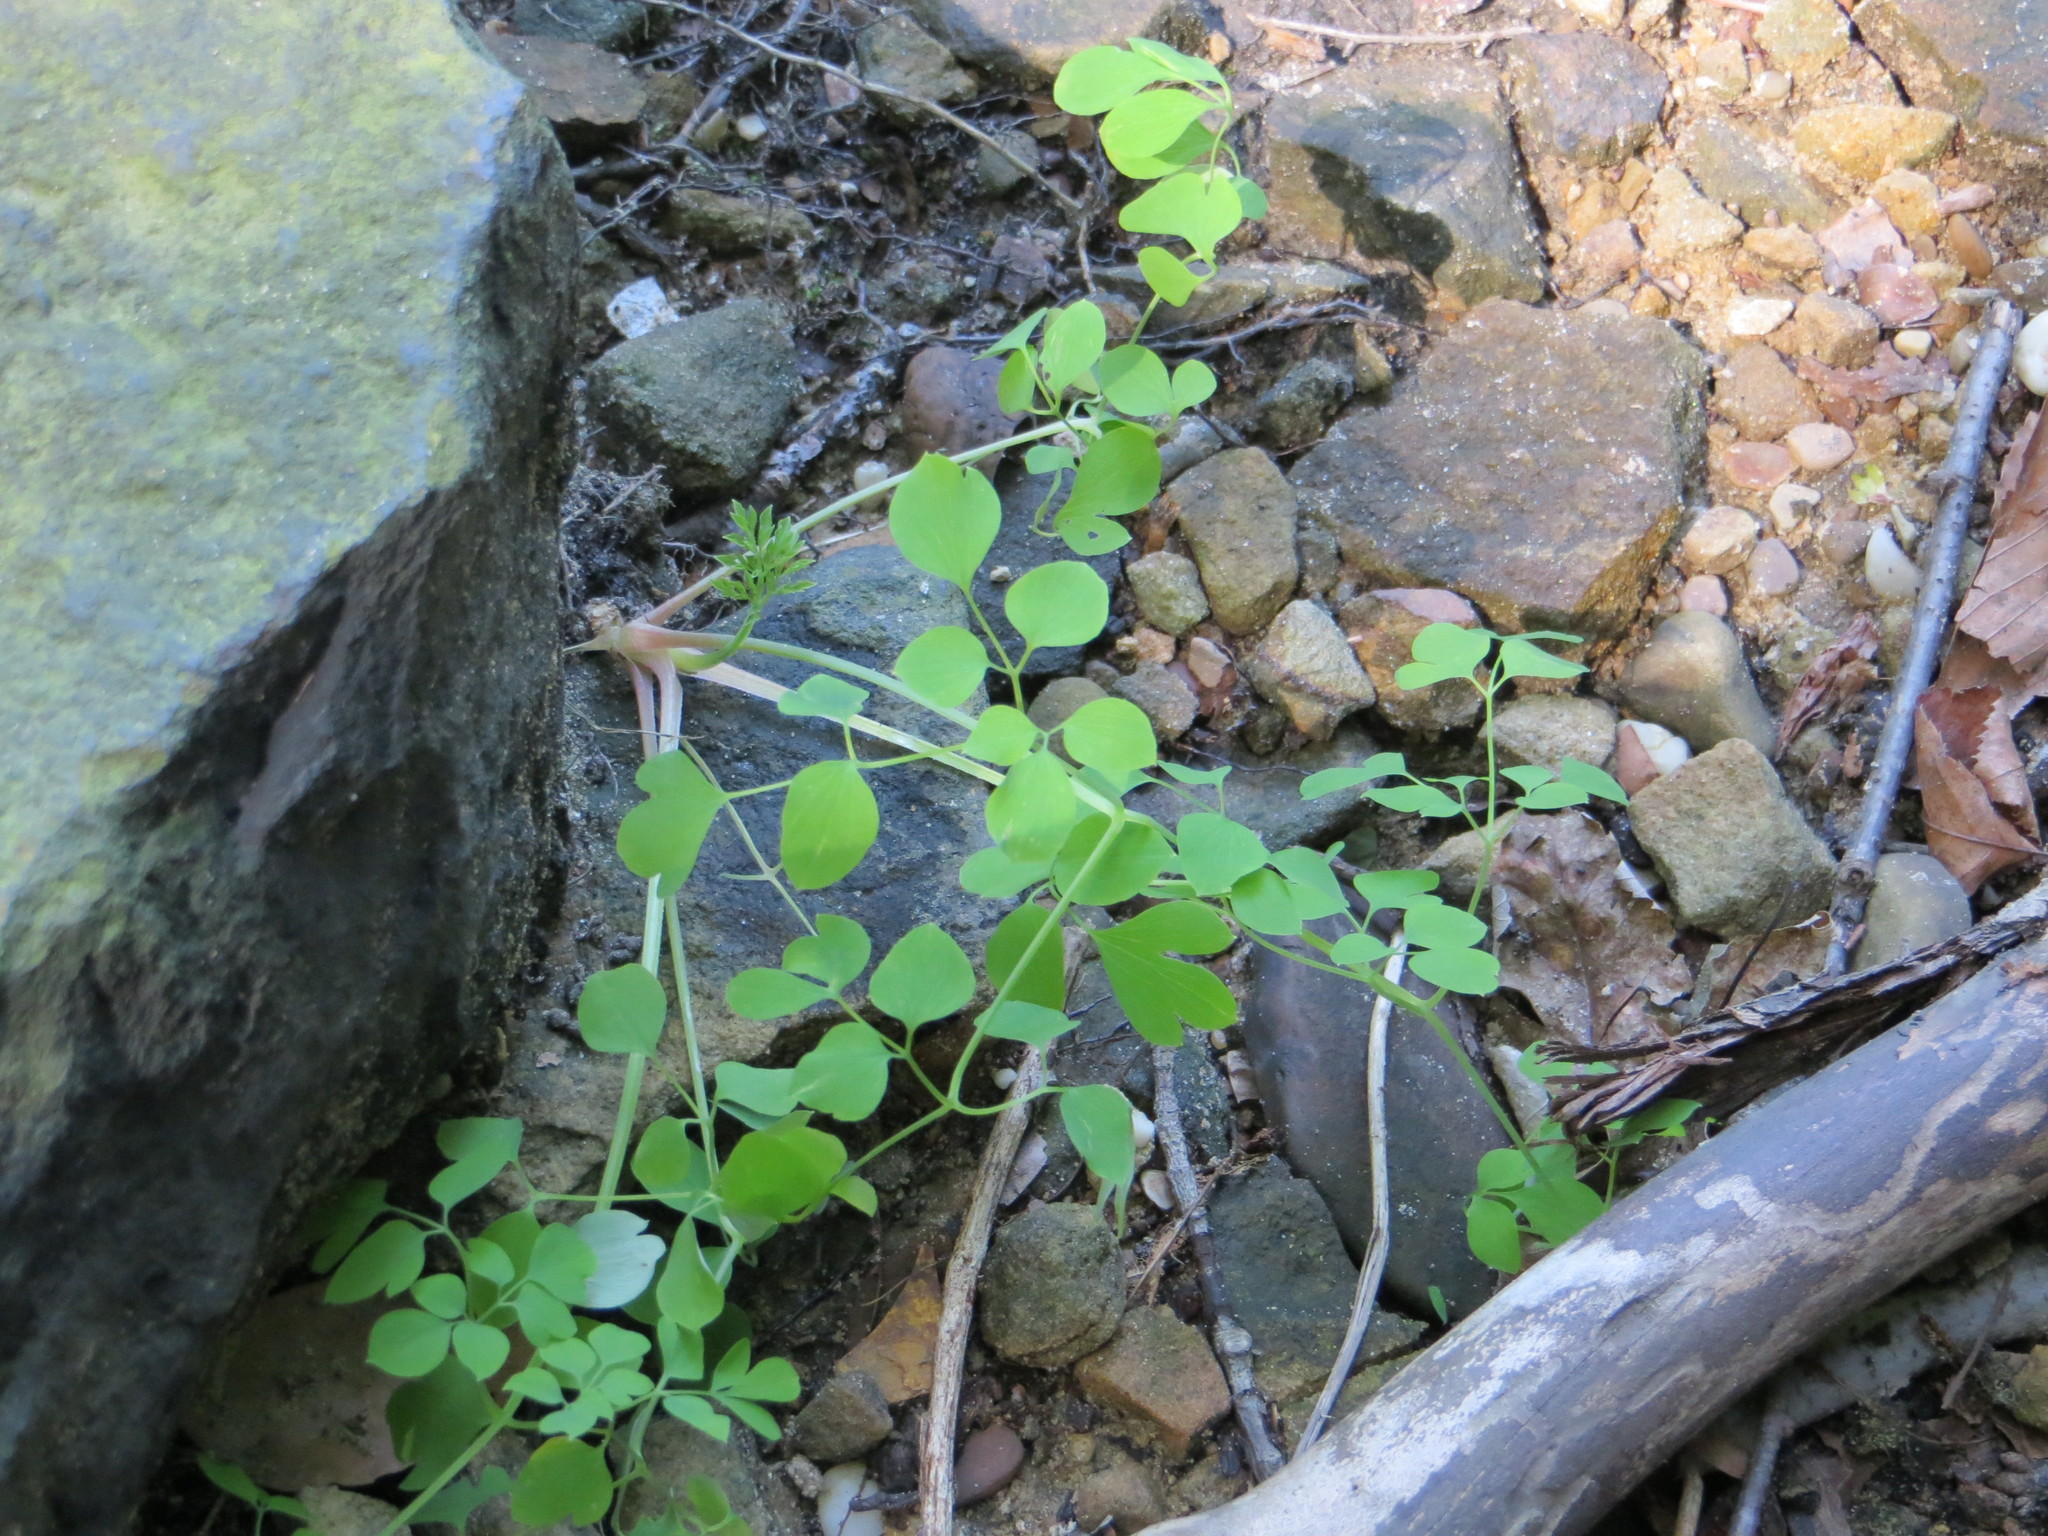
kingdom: Plantae
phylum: Tracheophyta
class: Magnoliopsida
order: Ranunculales
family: Papaveraceae
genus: Adlumia
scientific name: Adlumia fungosa
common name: Mountain-fringe
